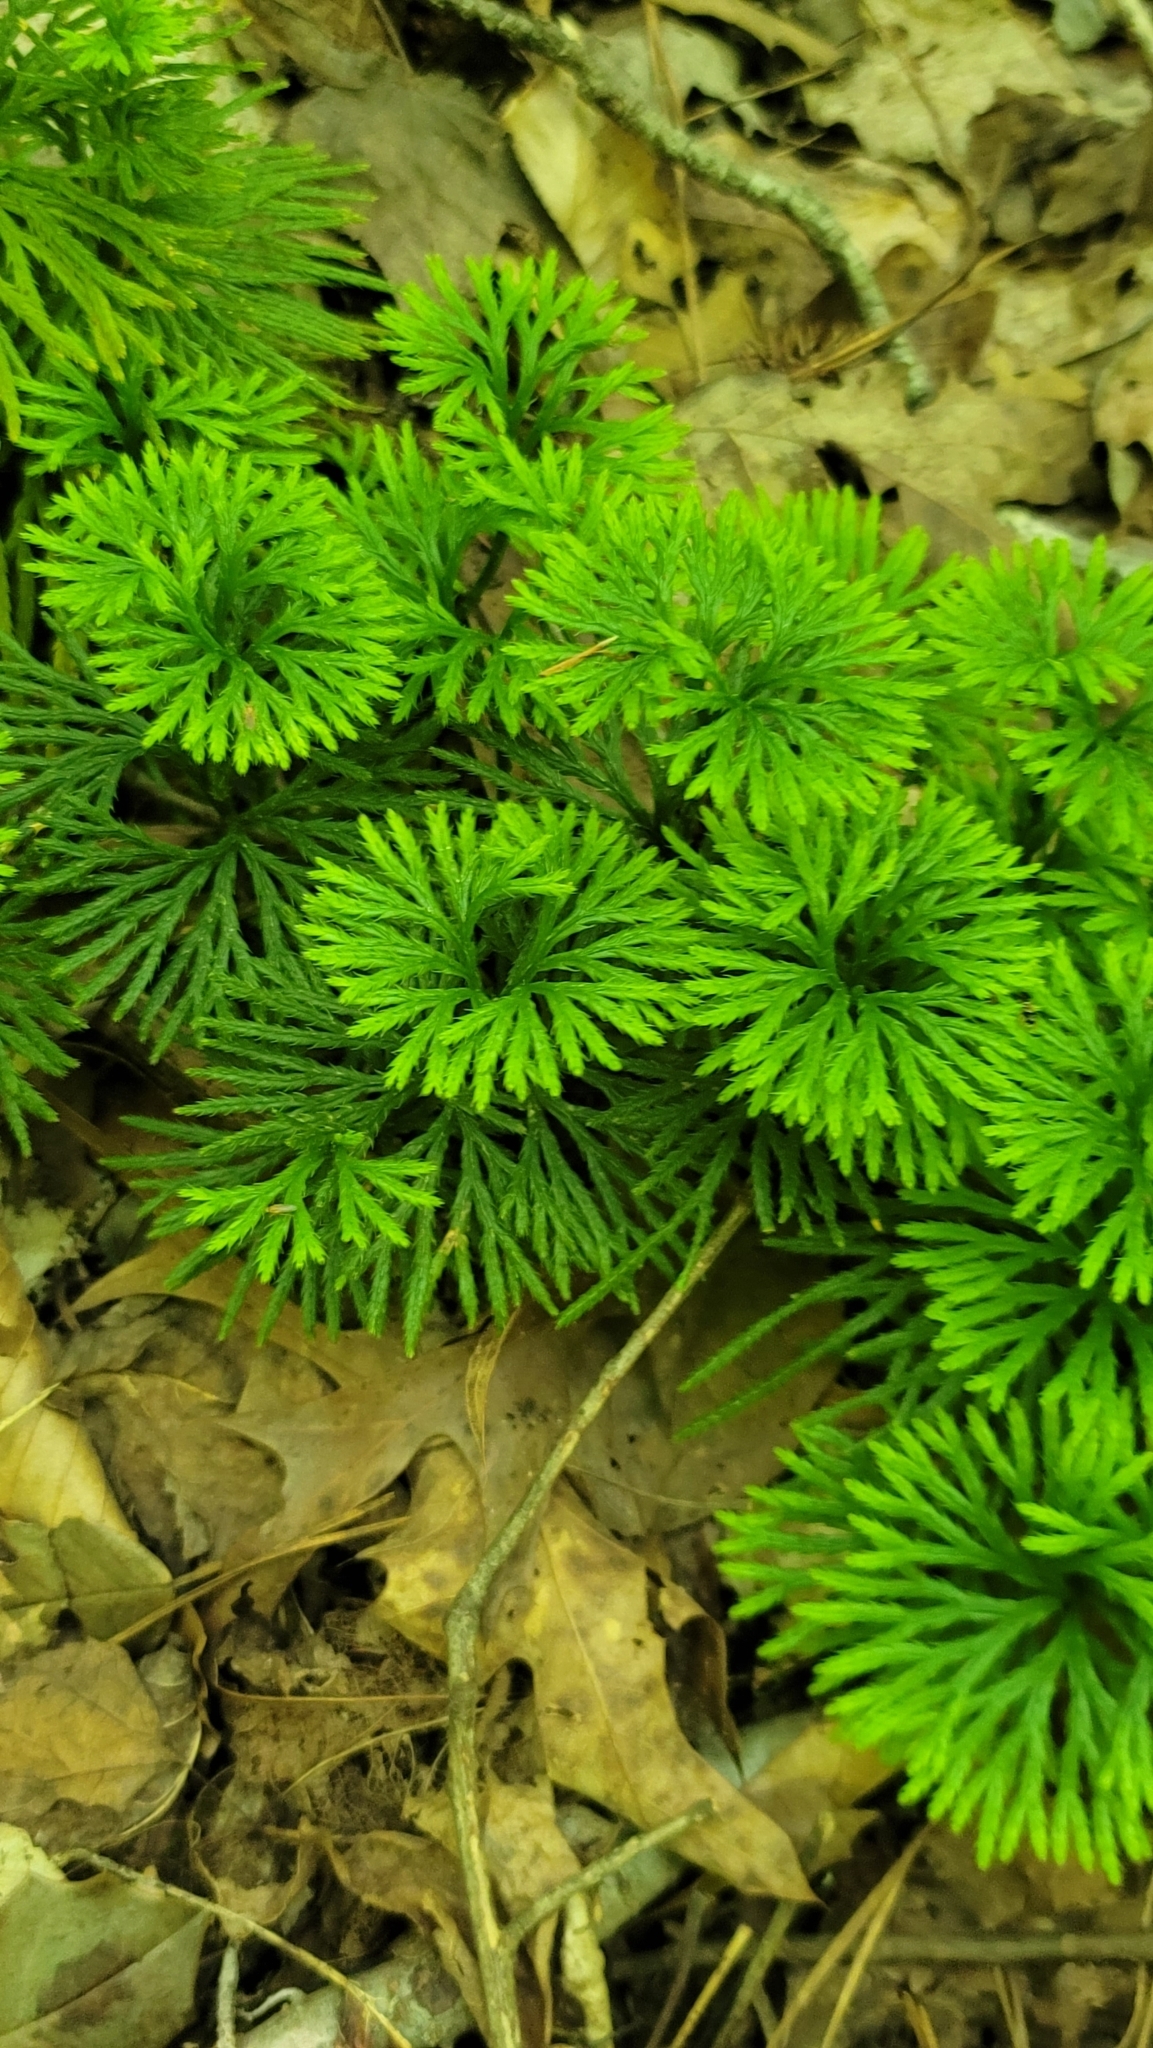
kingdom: Plantae
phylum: Tracheophyta
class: Lycopodiopsida
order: Lycopodiales
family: Lycopodiaceae
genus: Diphasiastrum
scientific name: Diphasiastrum digitatum
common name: Southern running-pine
